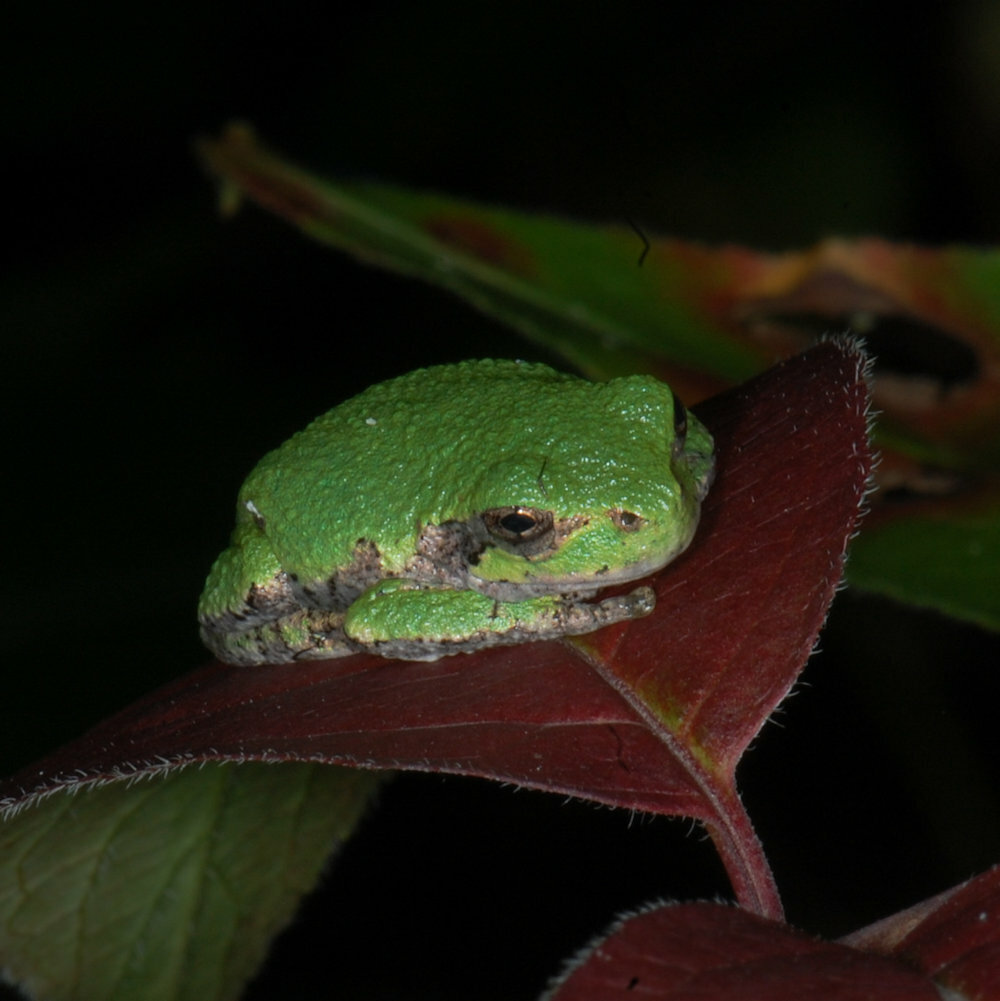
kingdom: Animalia
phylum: Chordata
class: Amphibia
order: Anura
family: Hylidae
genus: Dryophytes
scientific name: Dryophytes versicolor
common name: Gray treefrog
